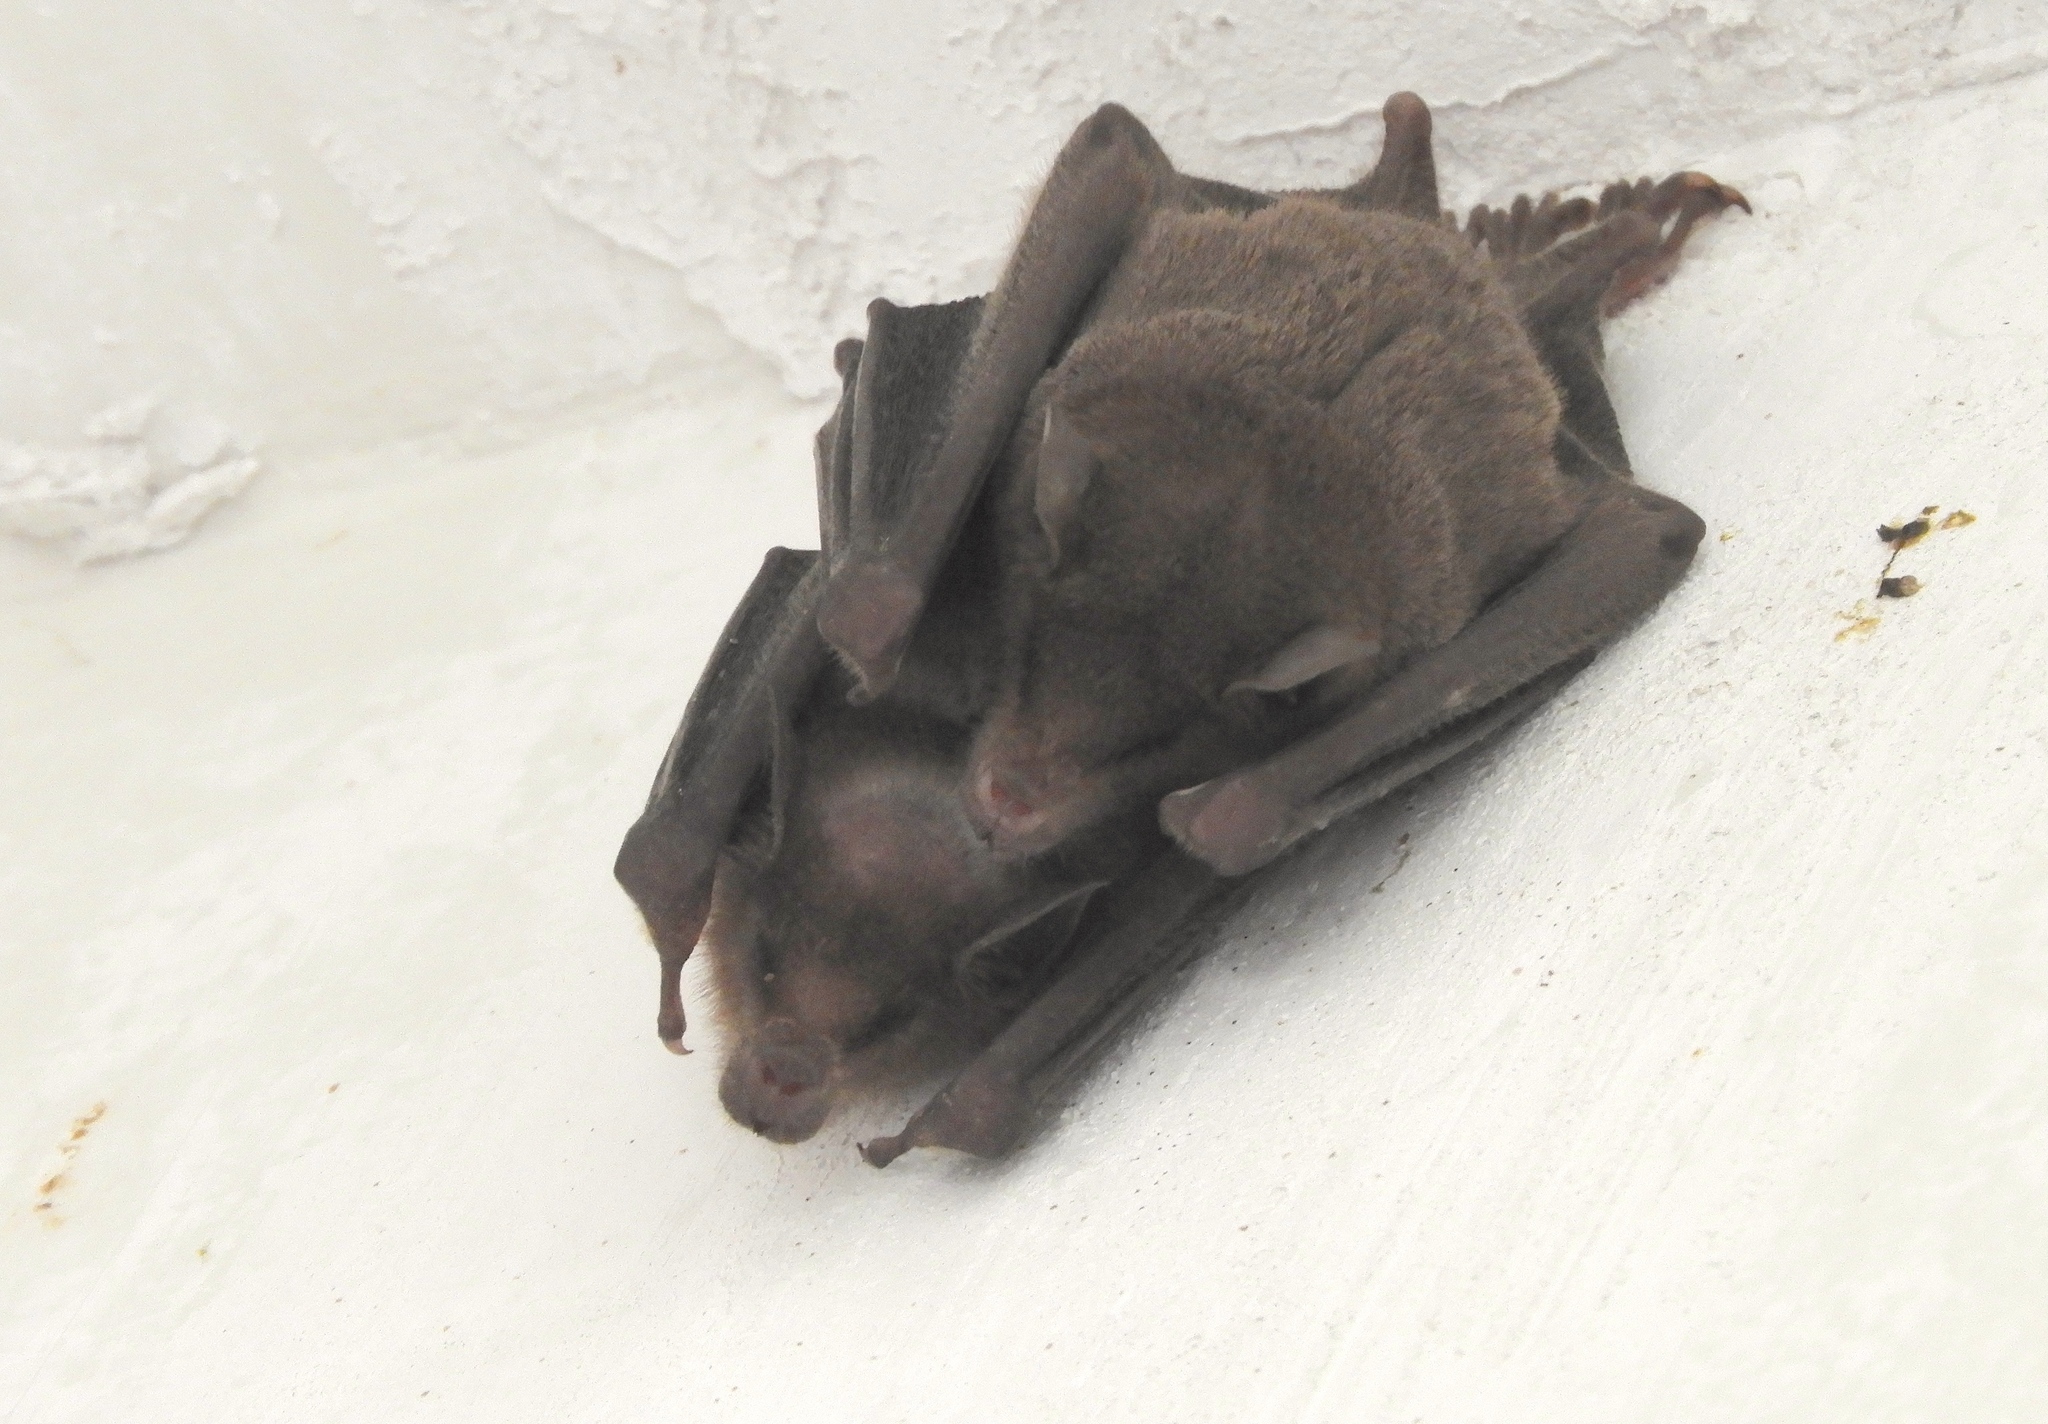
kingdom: Animalia
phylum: Chordata
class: Mammalia
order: Chiroptera
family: Phyllostomidae
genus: Leptonycteris
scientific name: Leptonycteris yerbabuenae
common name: Lesser long-nosed bat
